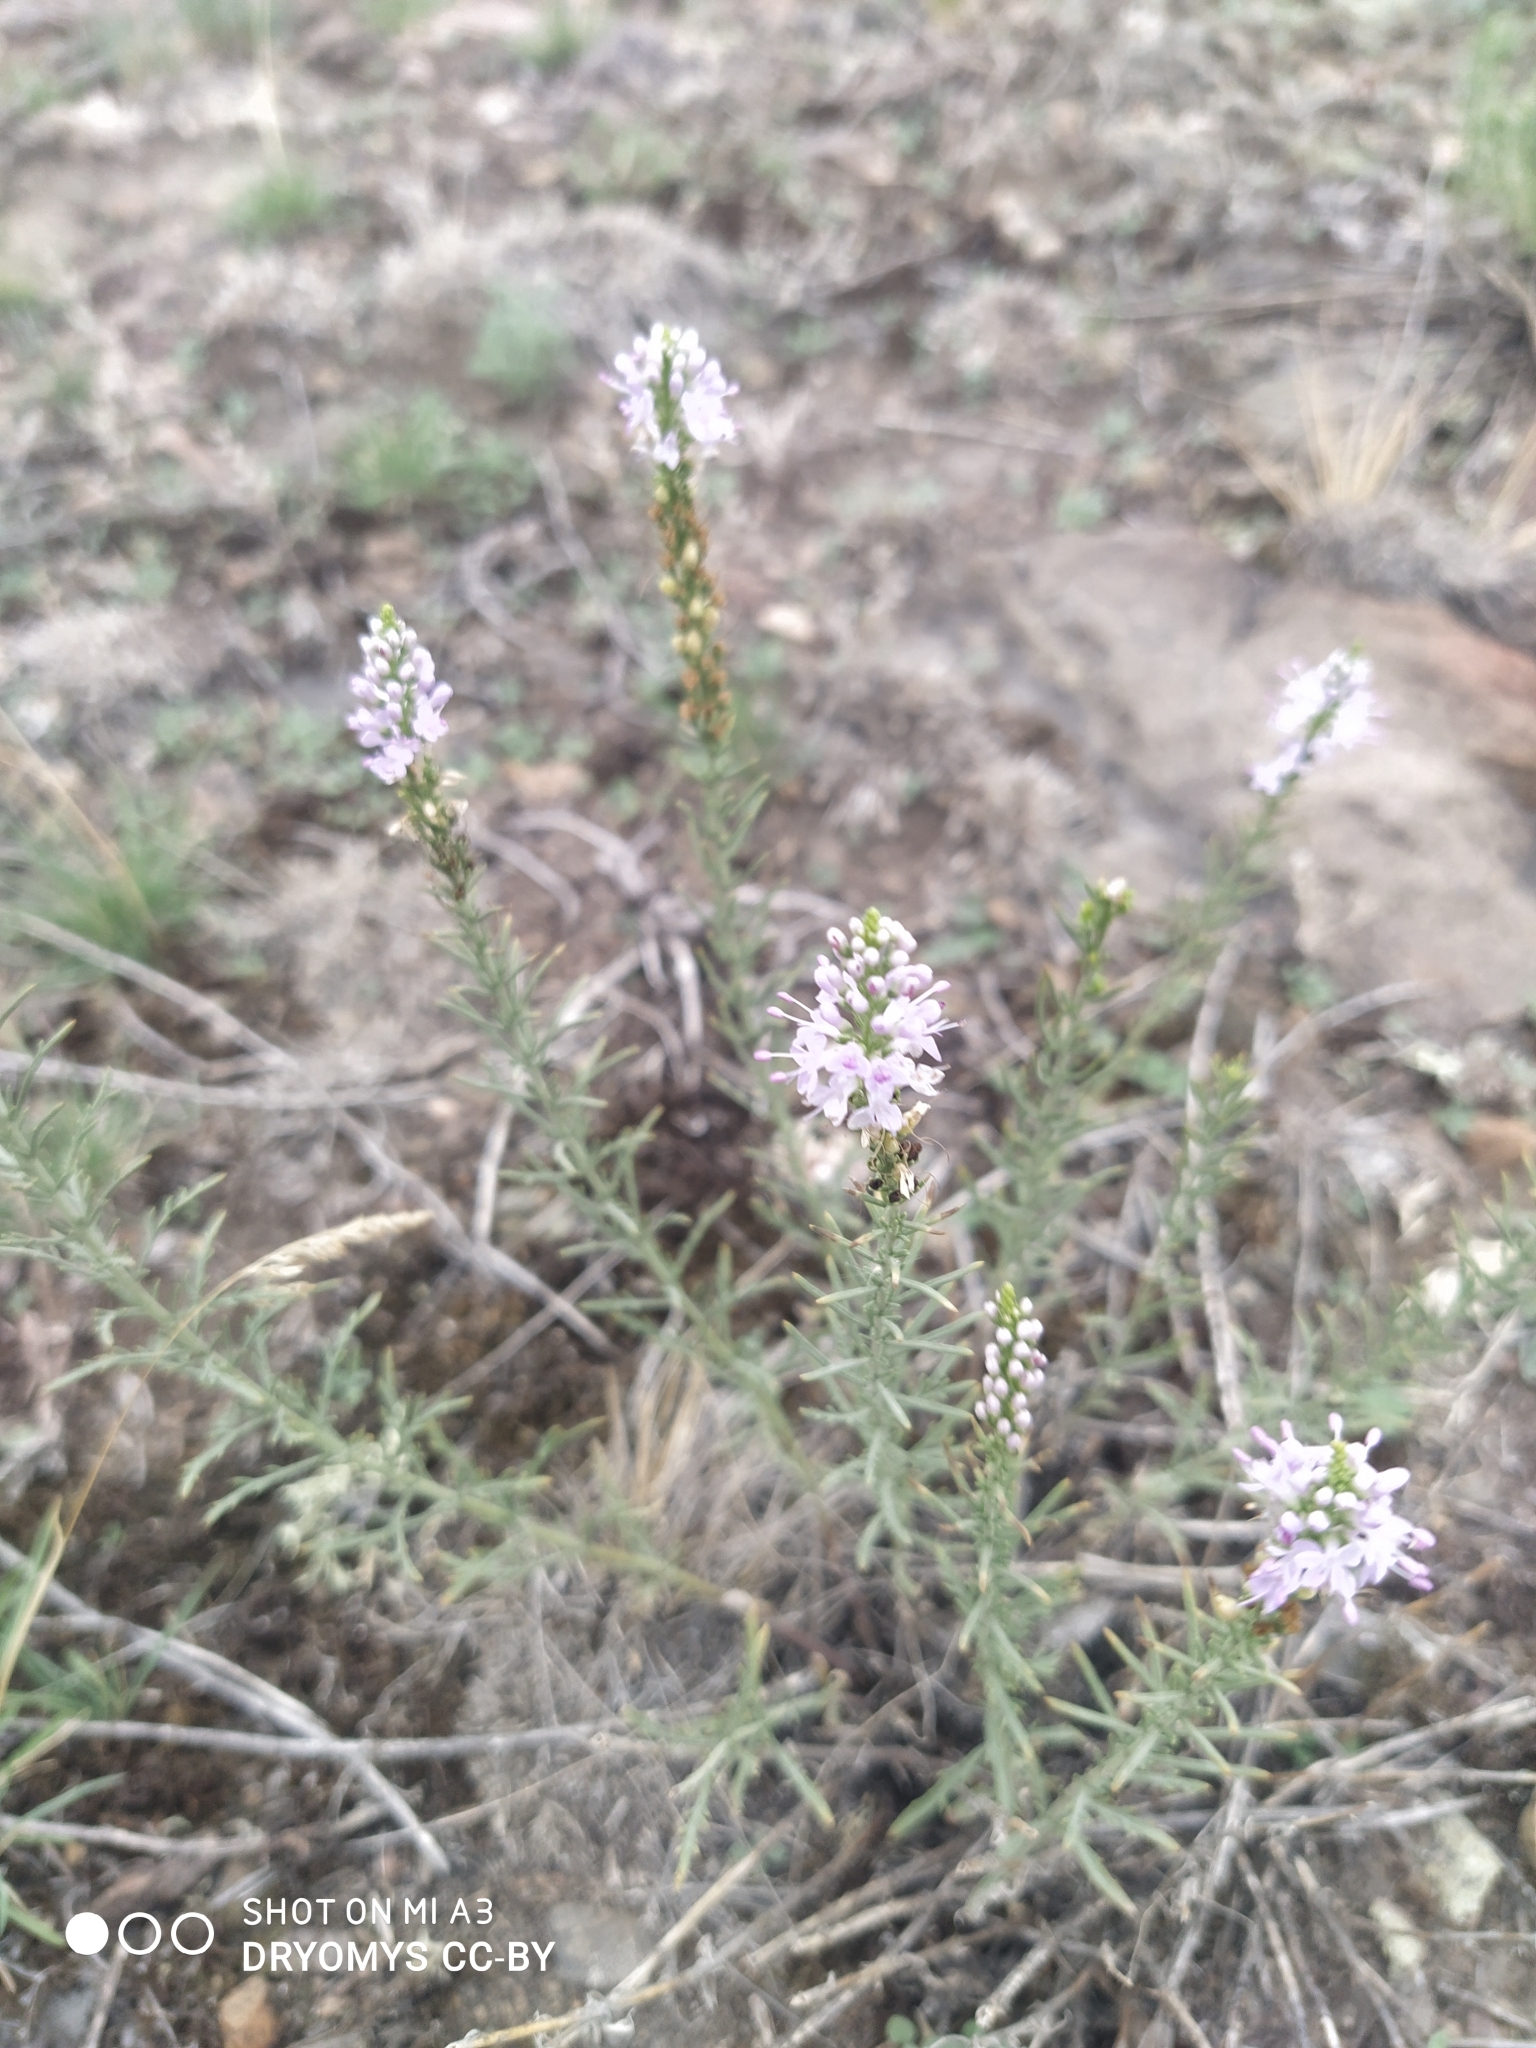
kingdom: Plantae
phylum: Tracheophyta
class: Magnoliopsida
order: Lamiales
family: Plantaginaceae
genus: Veronica
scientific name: Veronica pinnata
